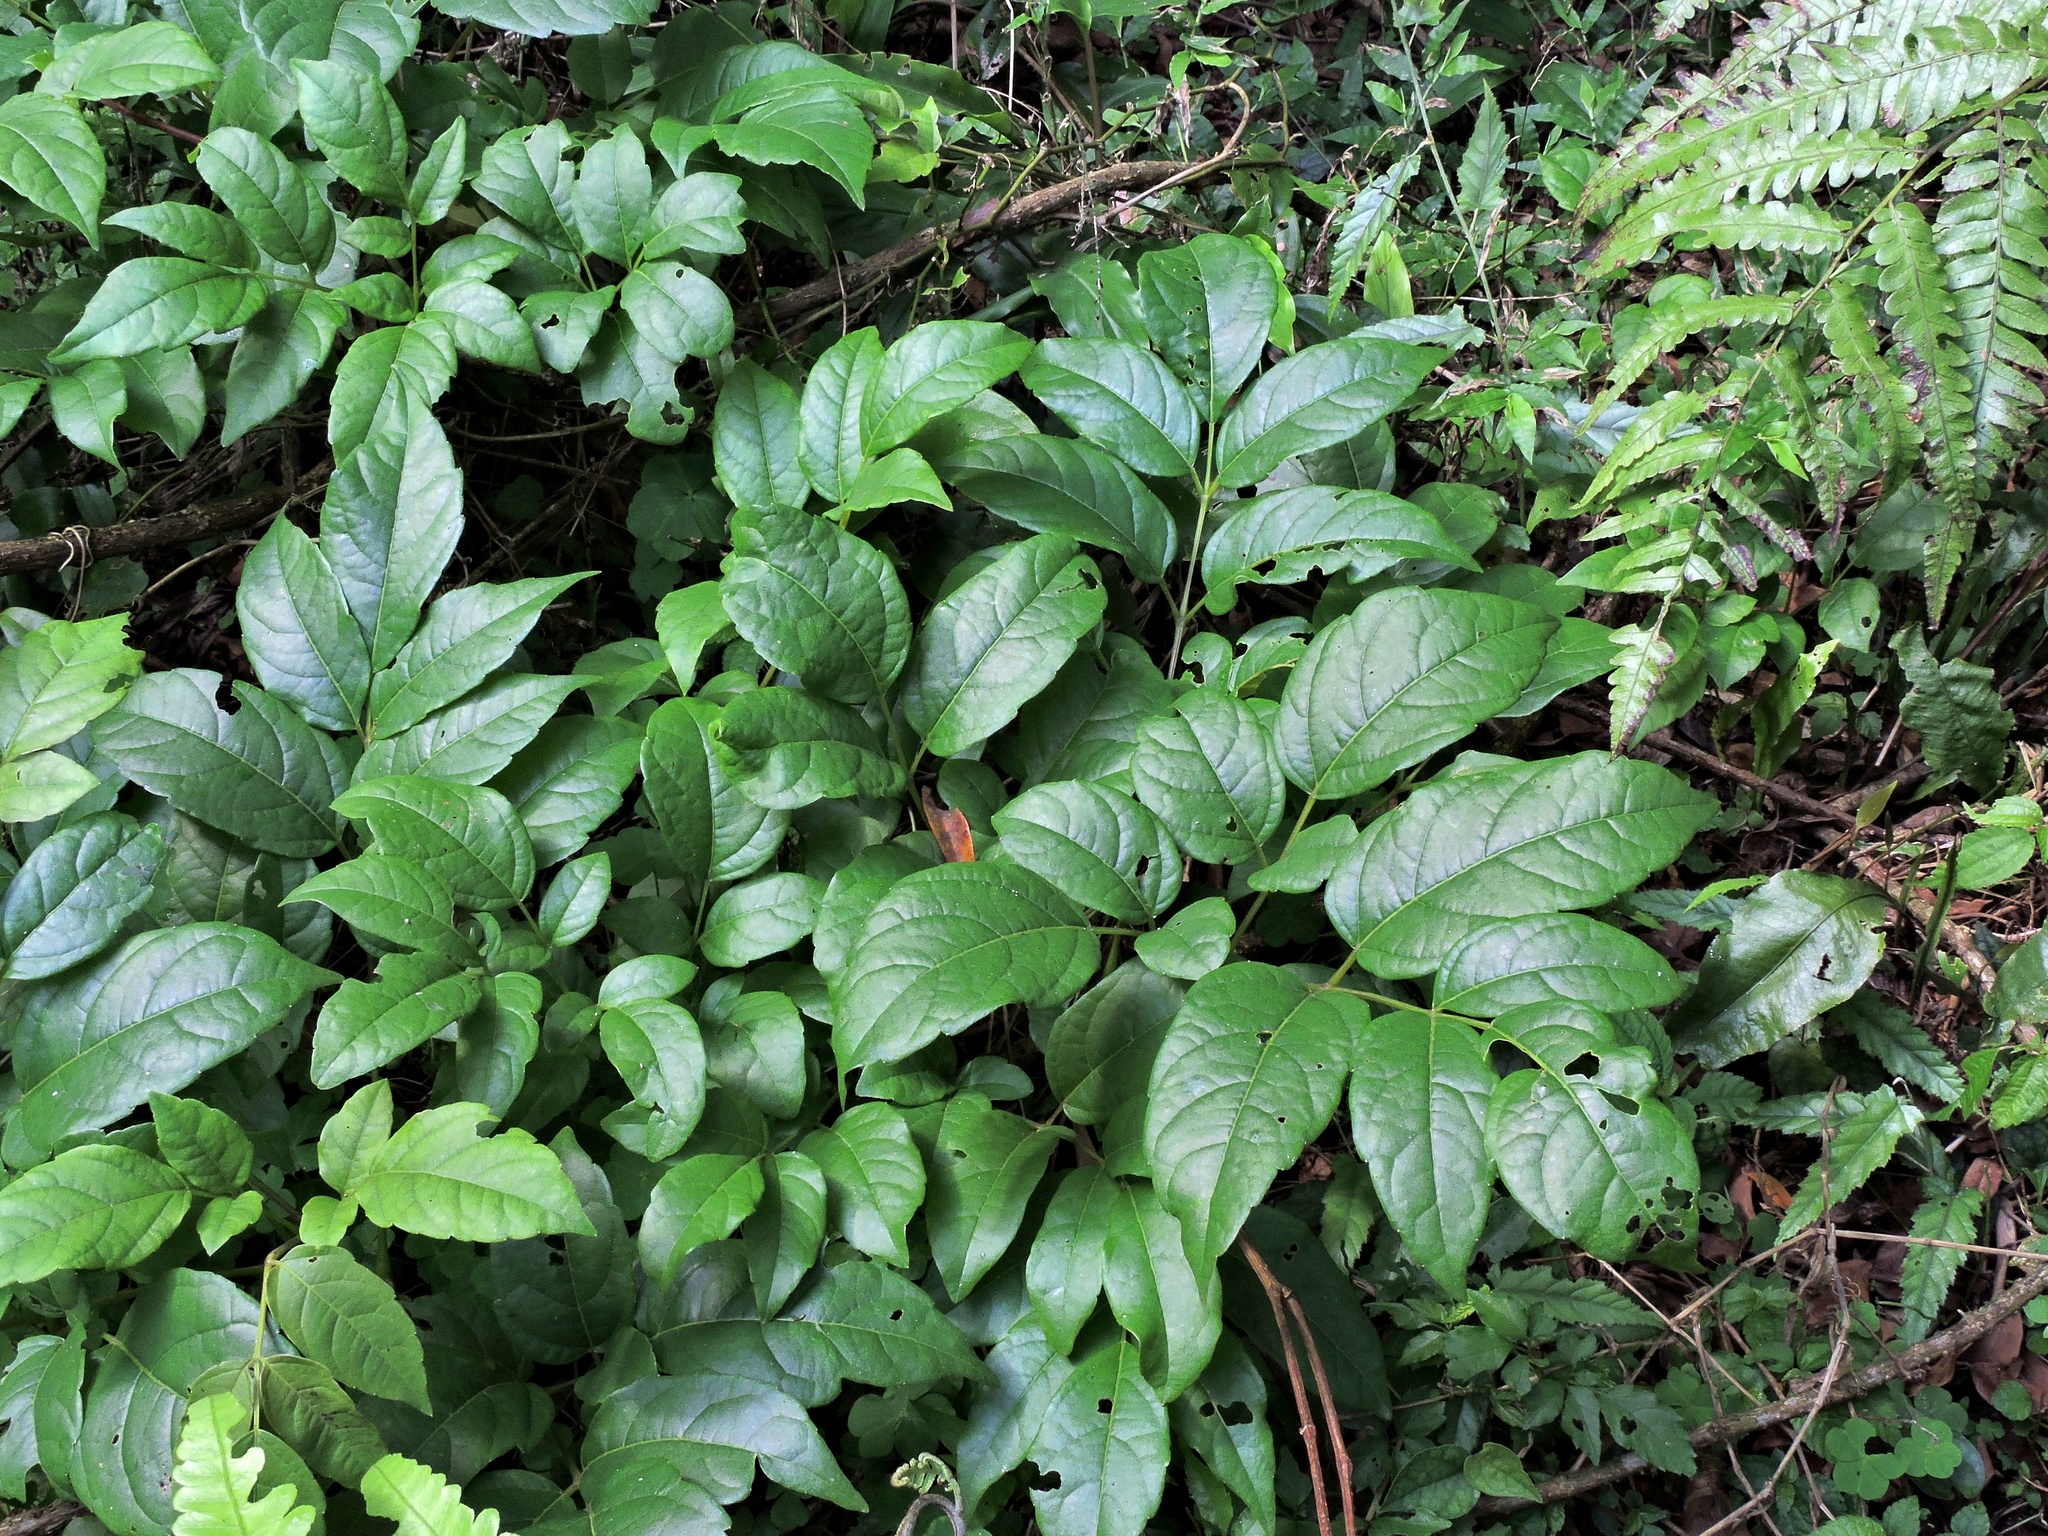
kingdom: Plantae
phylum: Tracheophyta
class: Magnoliopsida
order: Vitales
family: Vitaceae
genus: Nekemias
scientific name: Nekemias cantoniensis
